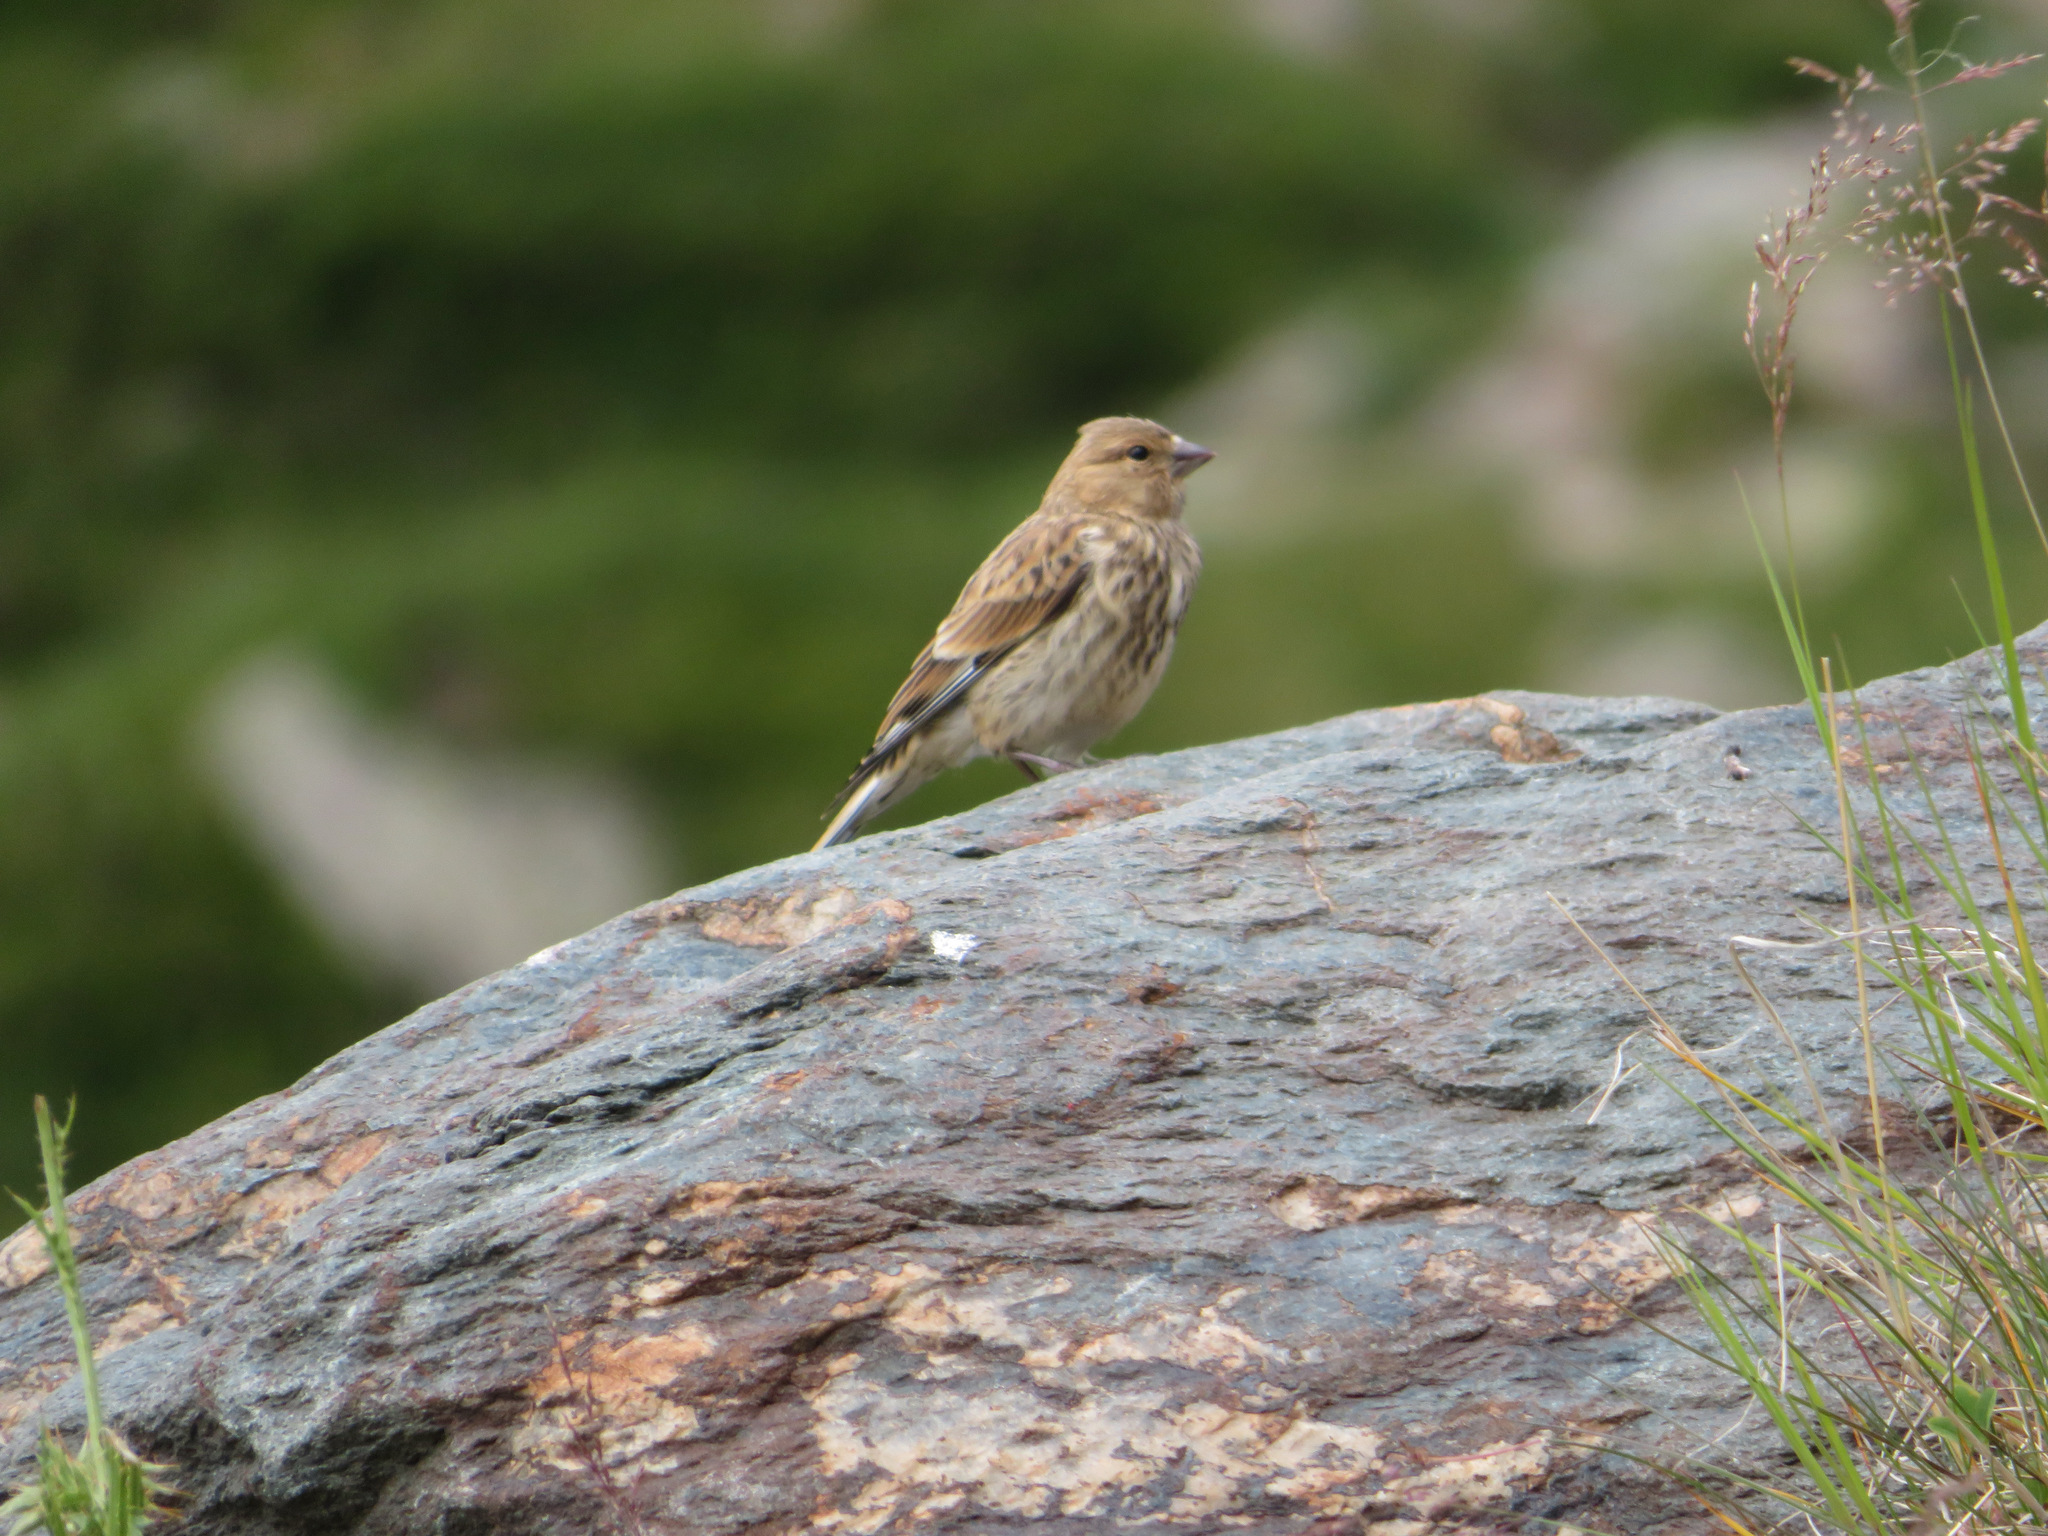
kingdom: Animalia
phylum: Chordata
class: Aves
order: Passeriformes
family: Fringillidae
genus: Linaria
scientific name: Linaria cannabina
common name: Common linnet
